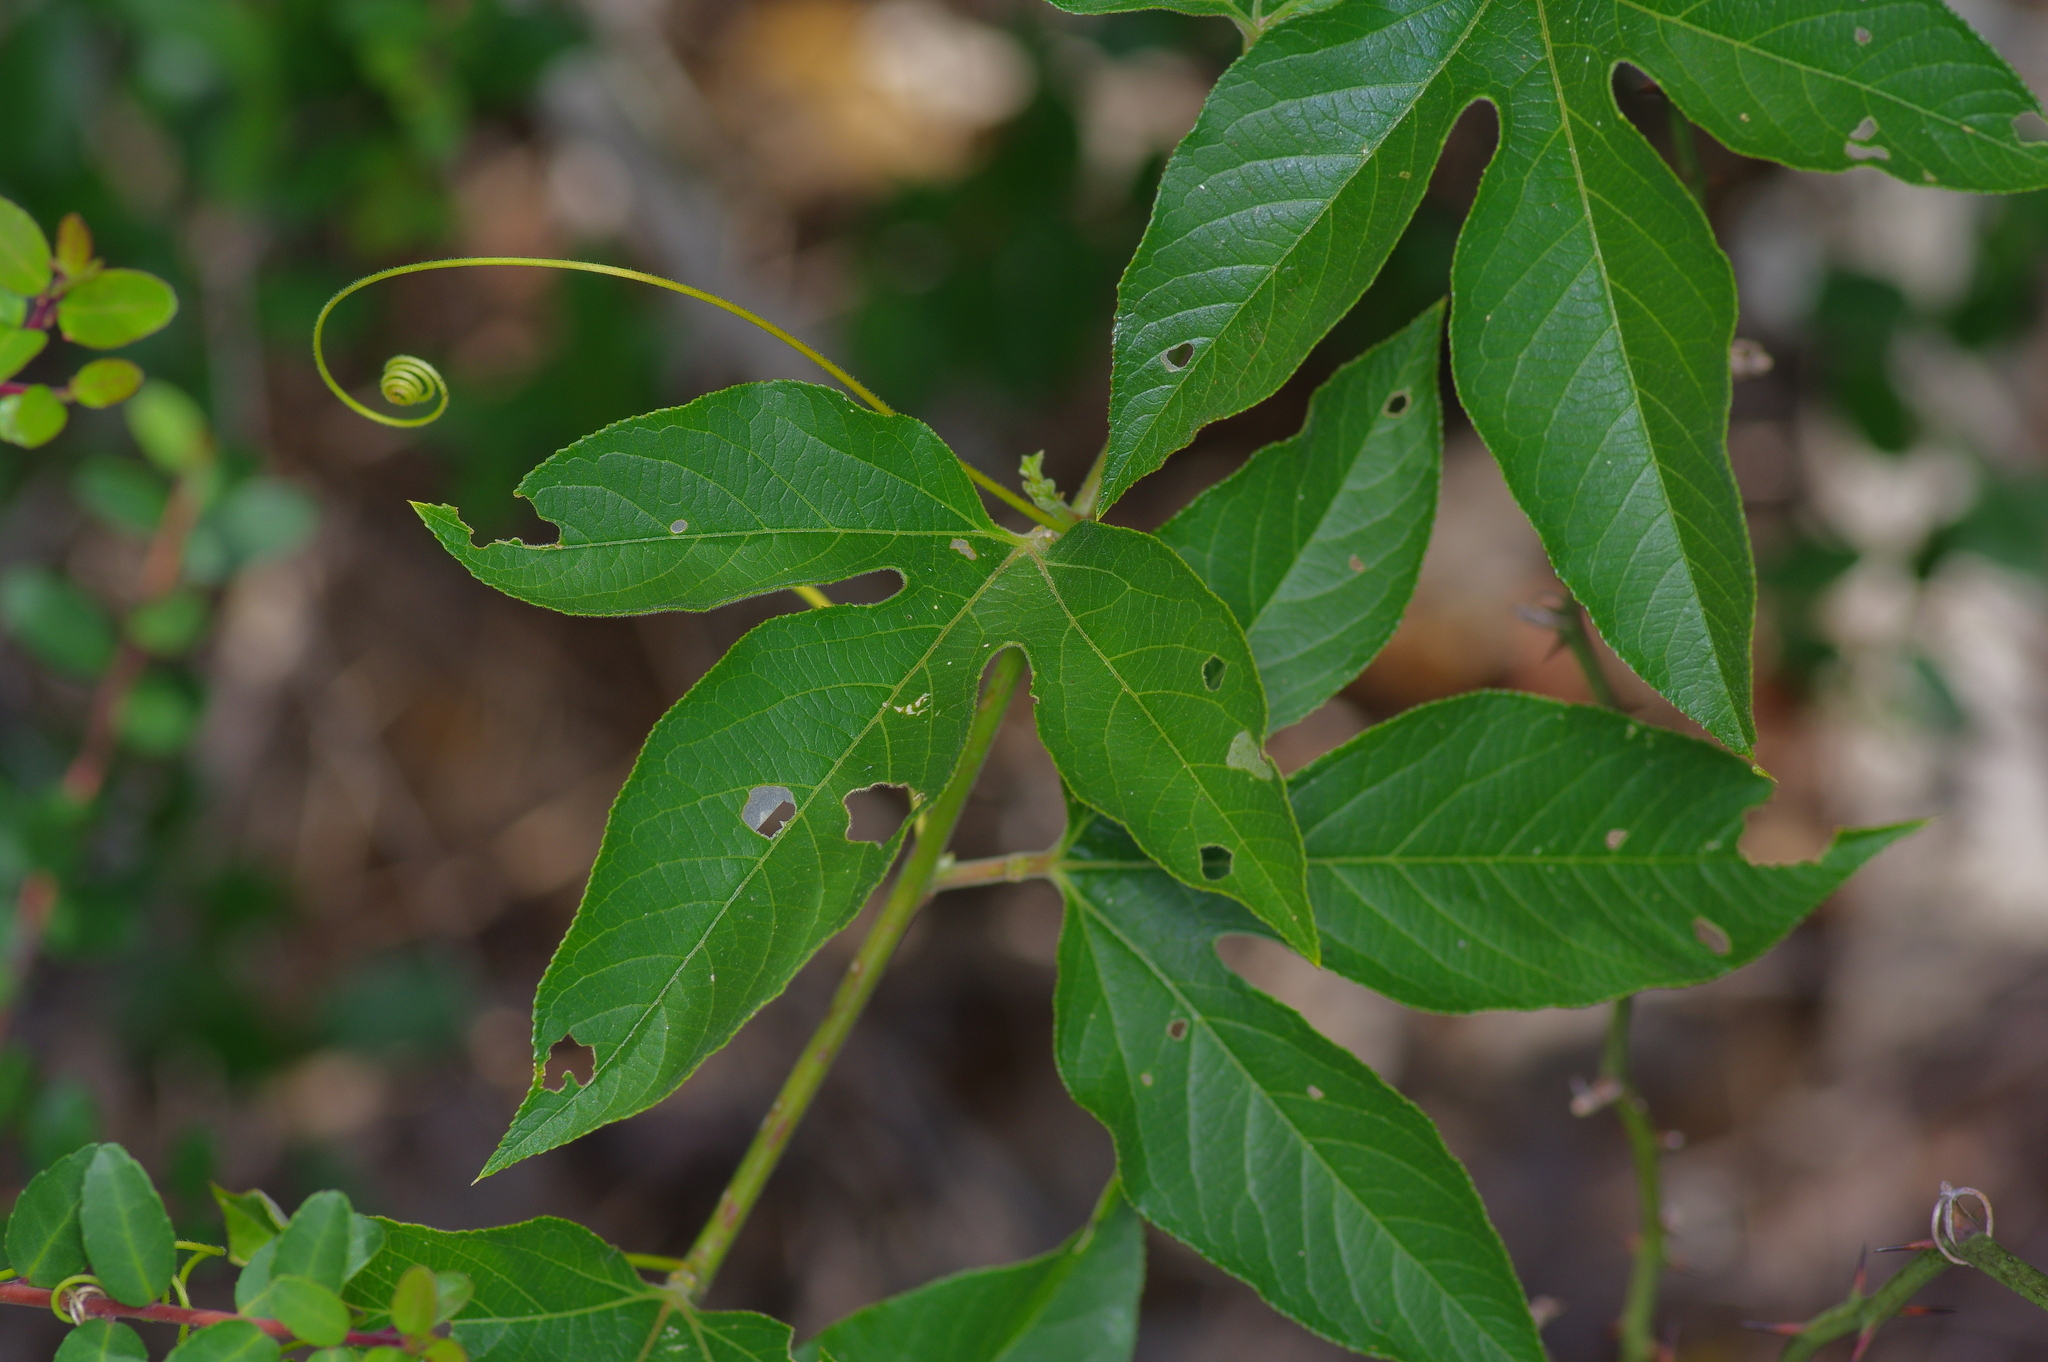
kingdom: Plantae
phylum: Tracheophyta
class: Magnoliopsida
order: Malpighiales
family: Passifloraceae
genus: Passiflora
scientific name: Passiflora incarnata
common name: Apricot-vine
